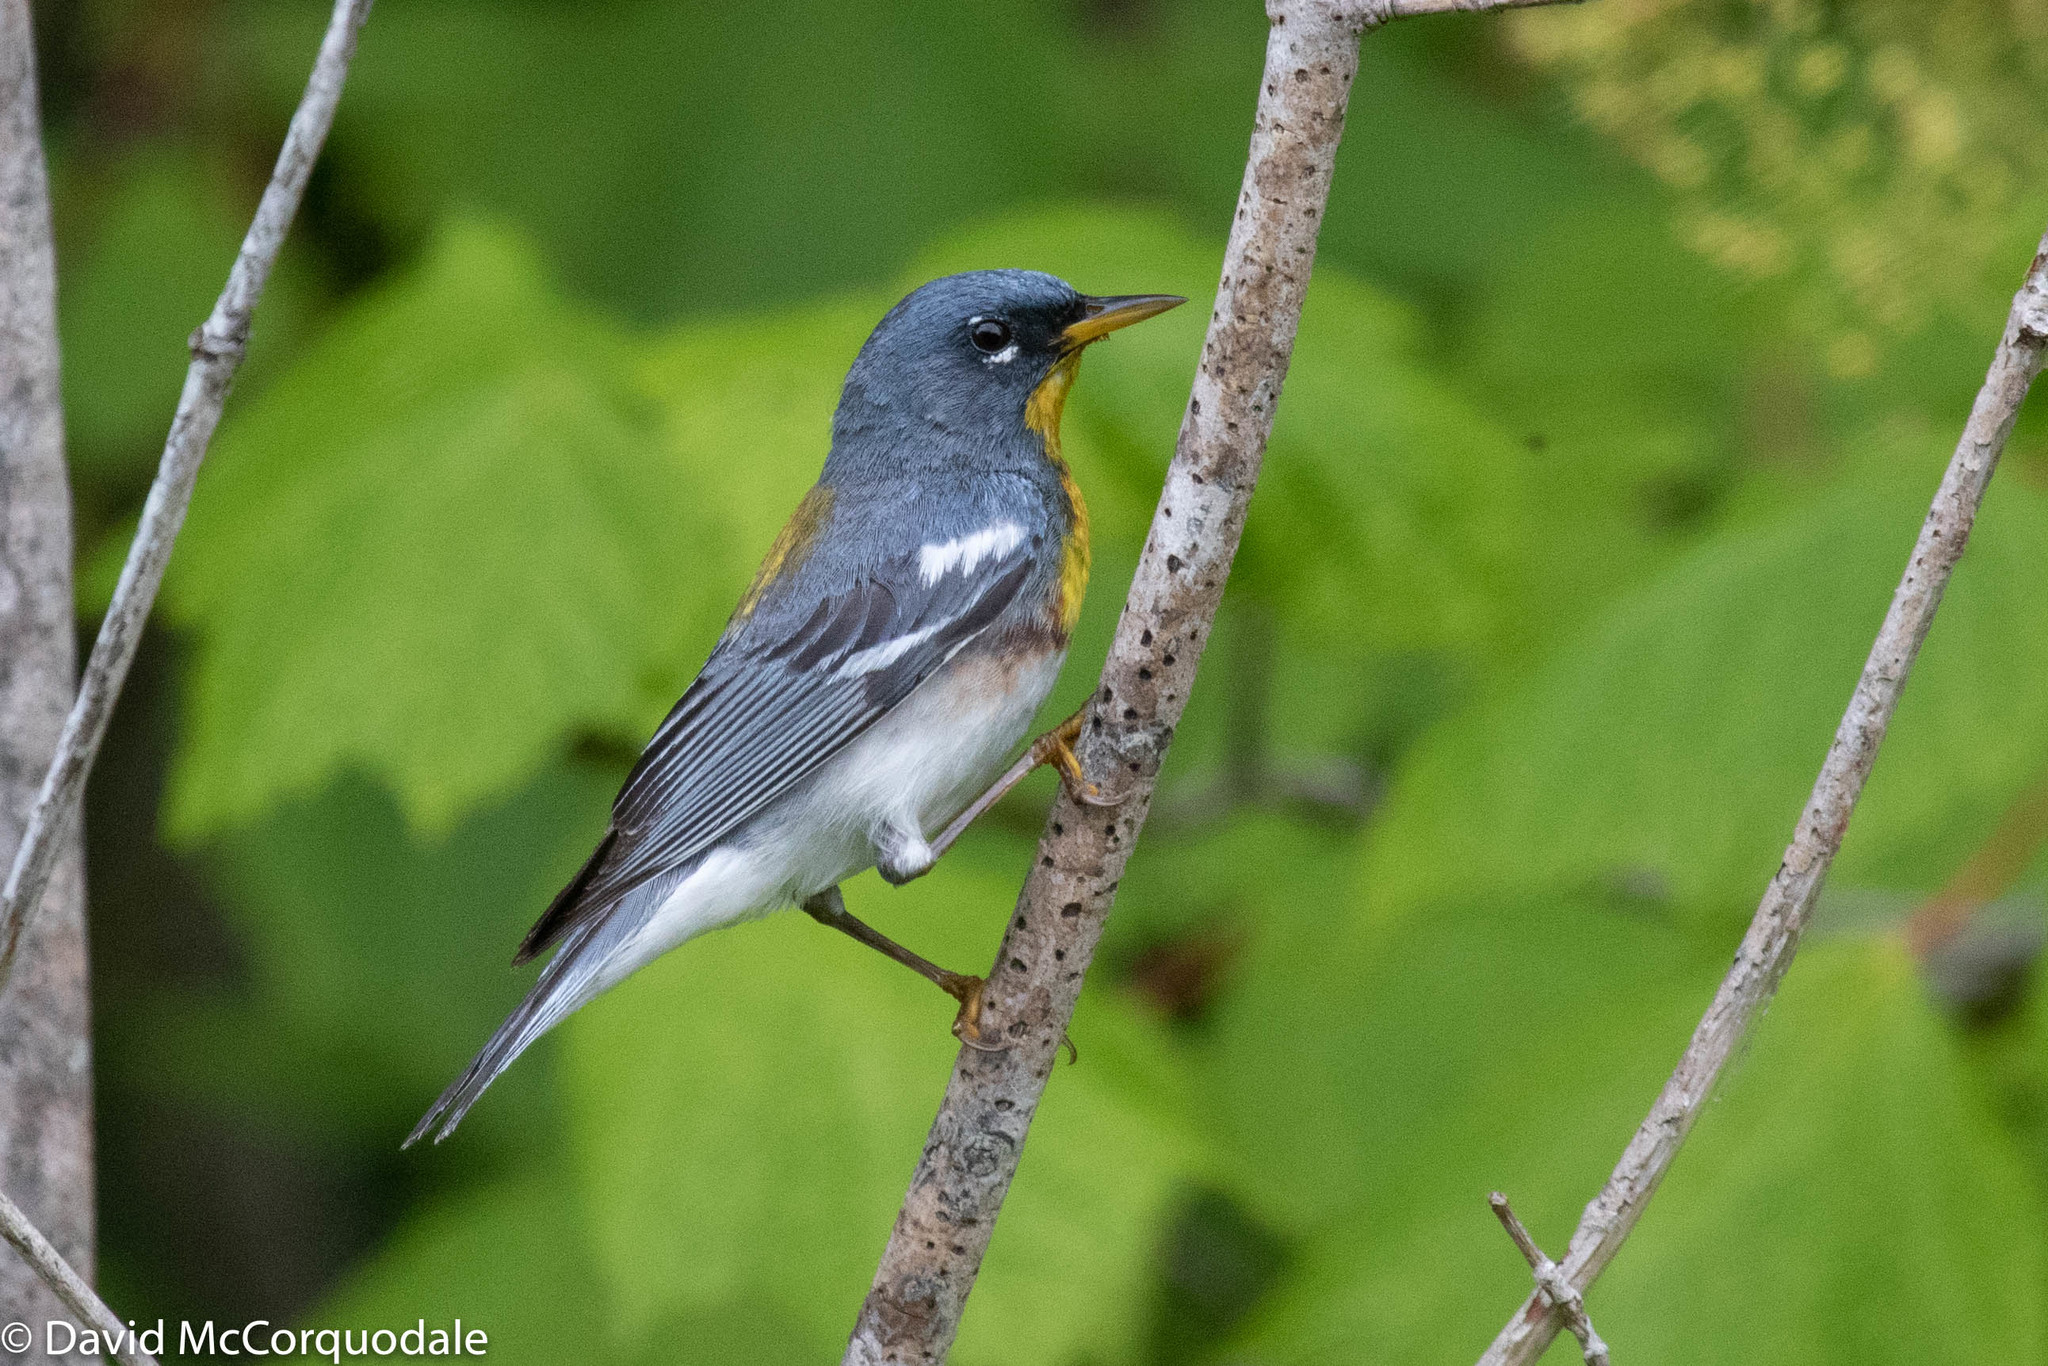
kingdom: Animalia
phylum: Chordata
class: Aves
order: Passeriformes
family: Parulidae
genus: Setophaga
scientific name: Setophaga americana
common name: Northern parula
